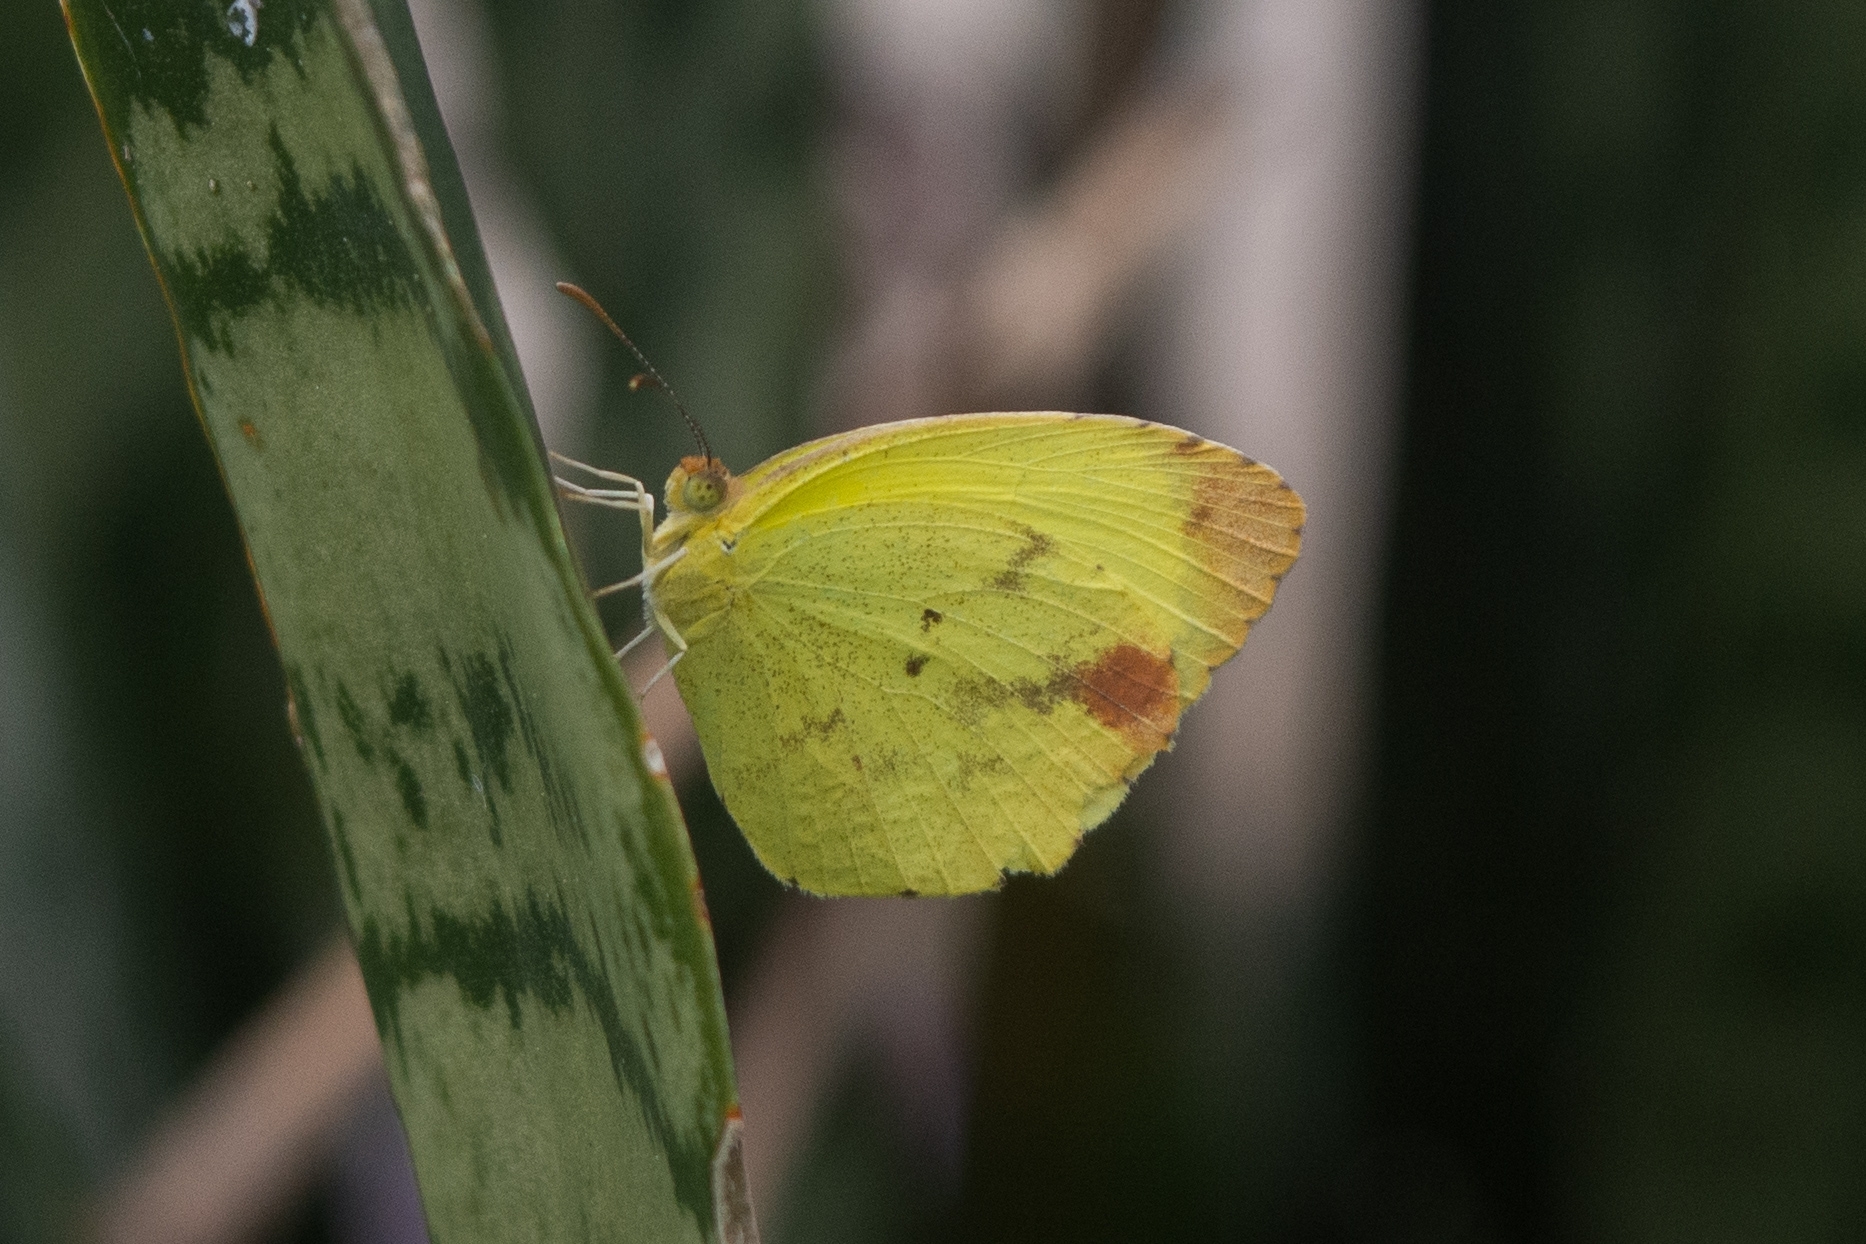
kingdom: Animalia
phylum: Arthropoda
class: Insecta
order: Lepidoptera
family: Pieridae
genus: Pyrisitia
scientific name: Pyrisitia leuce
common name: Hall's sulfur
